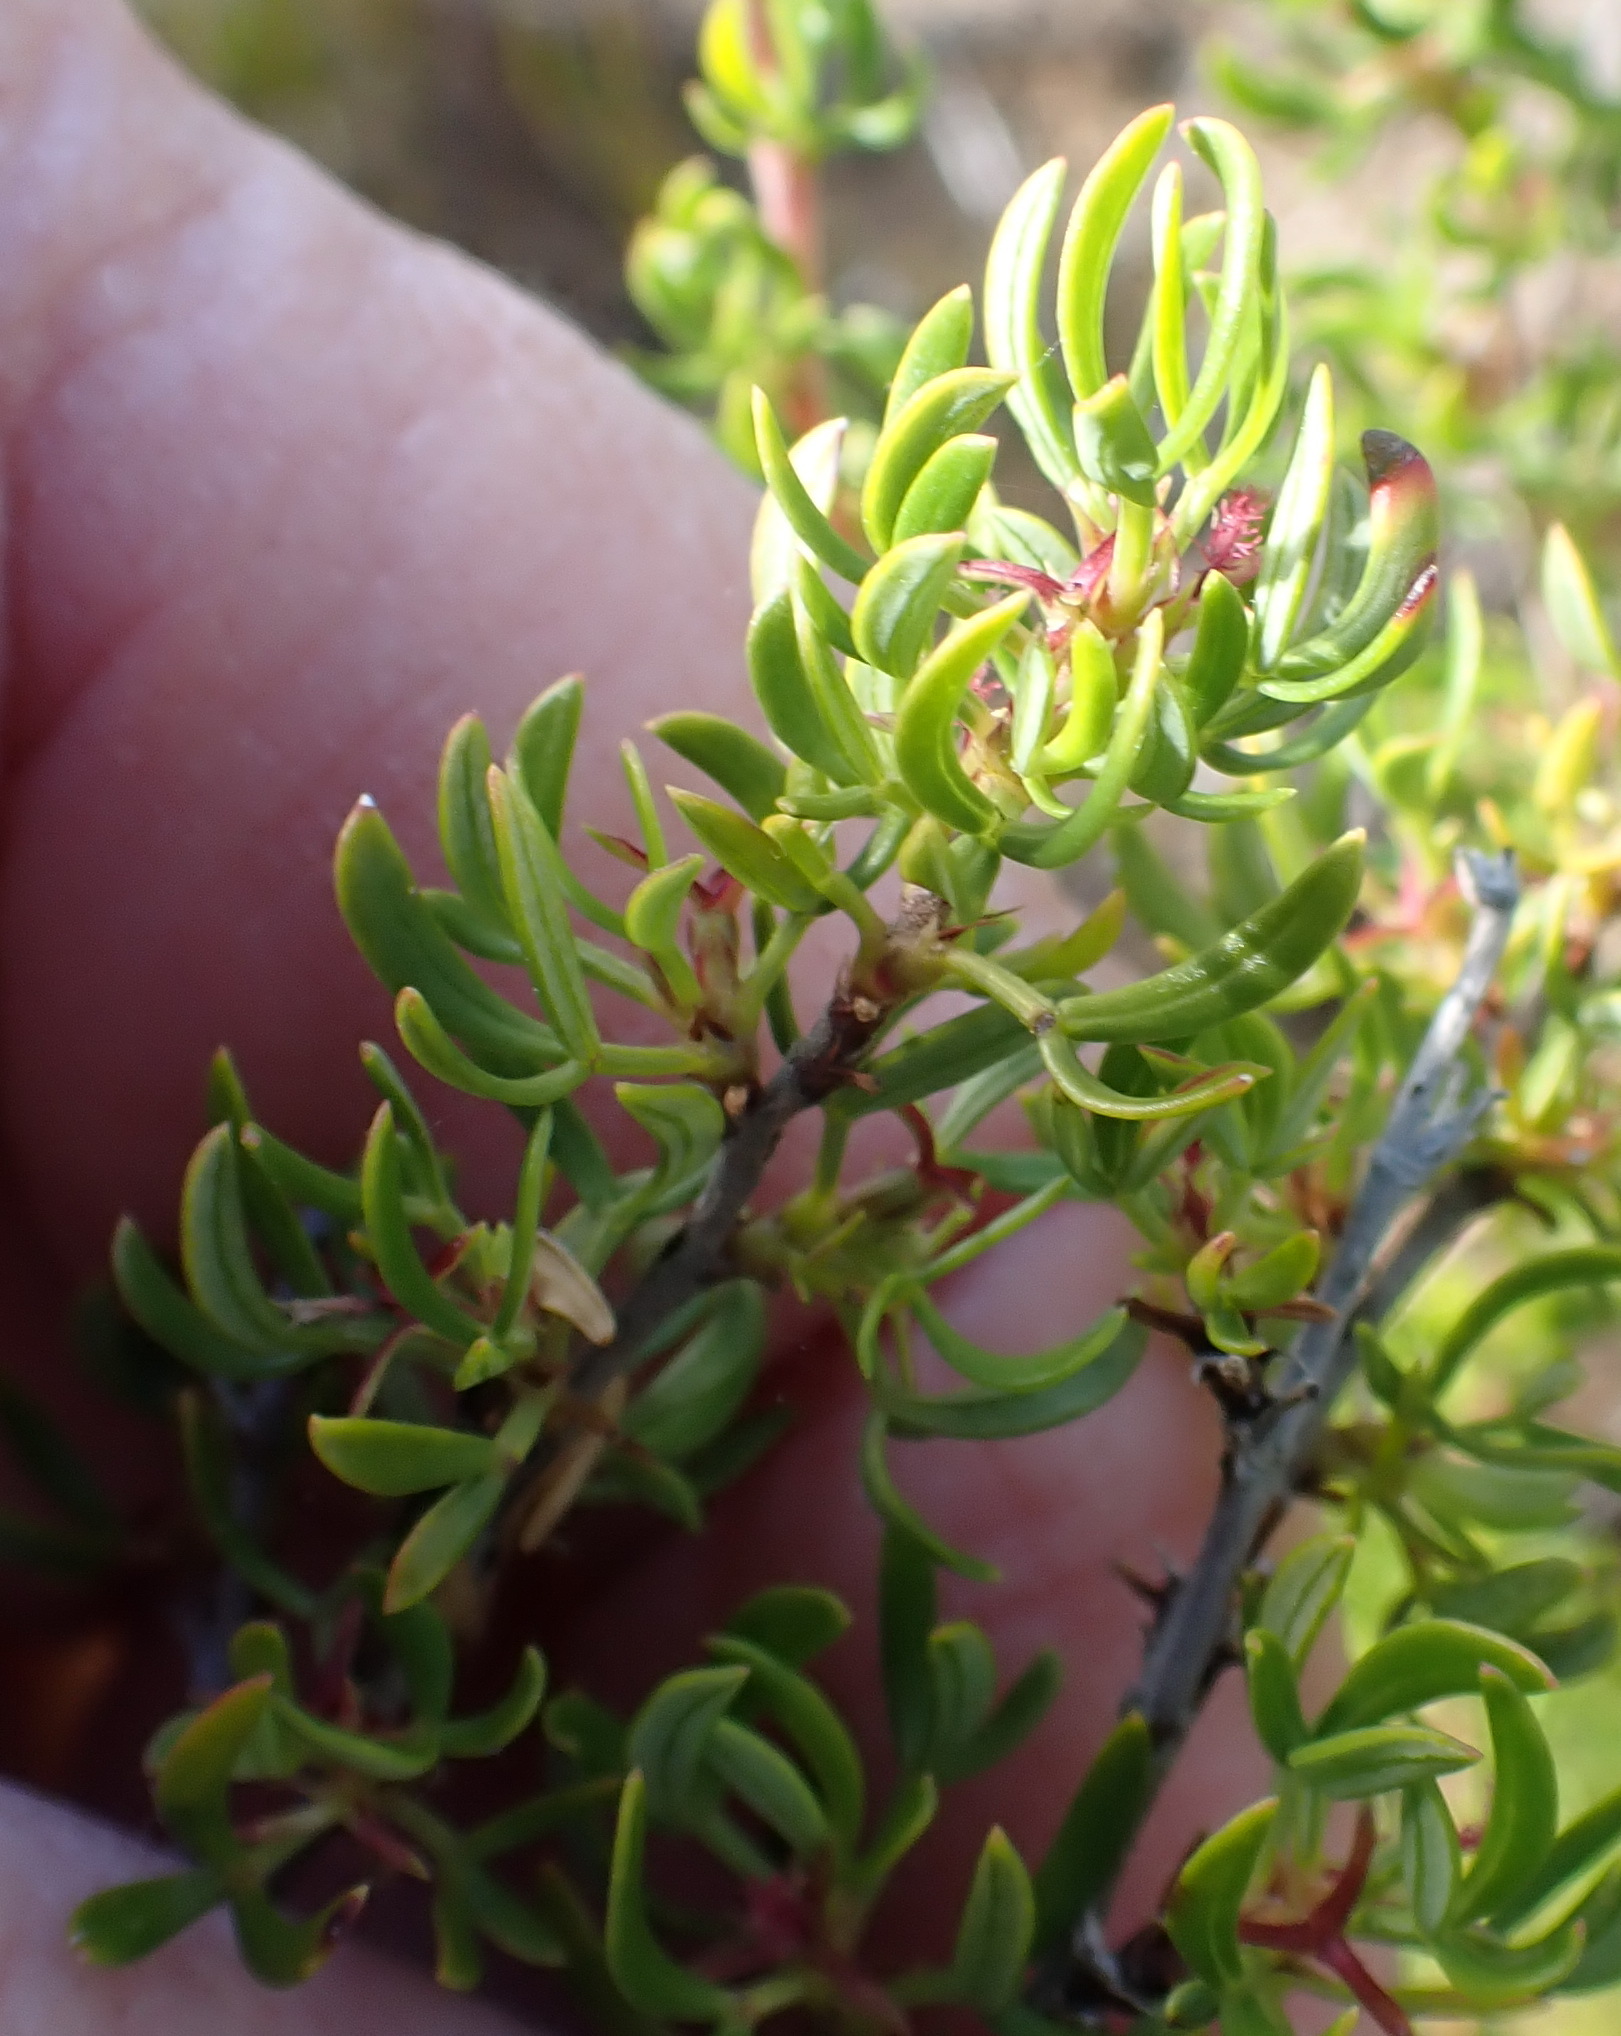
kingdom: Plantae
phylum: Tracheophyta
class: Magnoliopsida
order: Rosales
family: Rosaceae
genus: Cliffortia
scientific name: Cliffortia falcata
